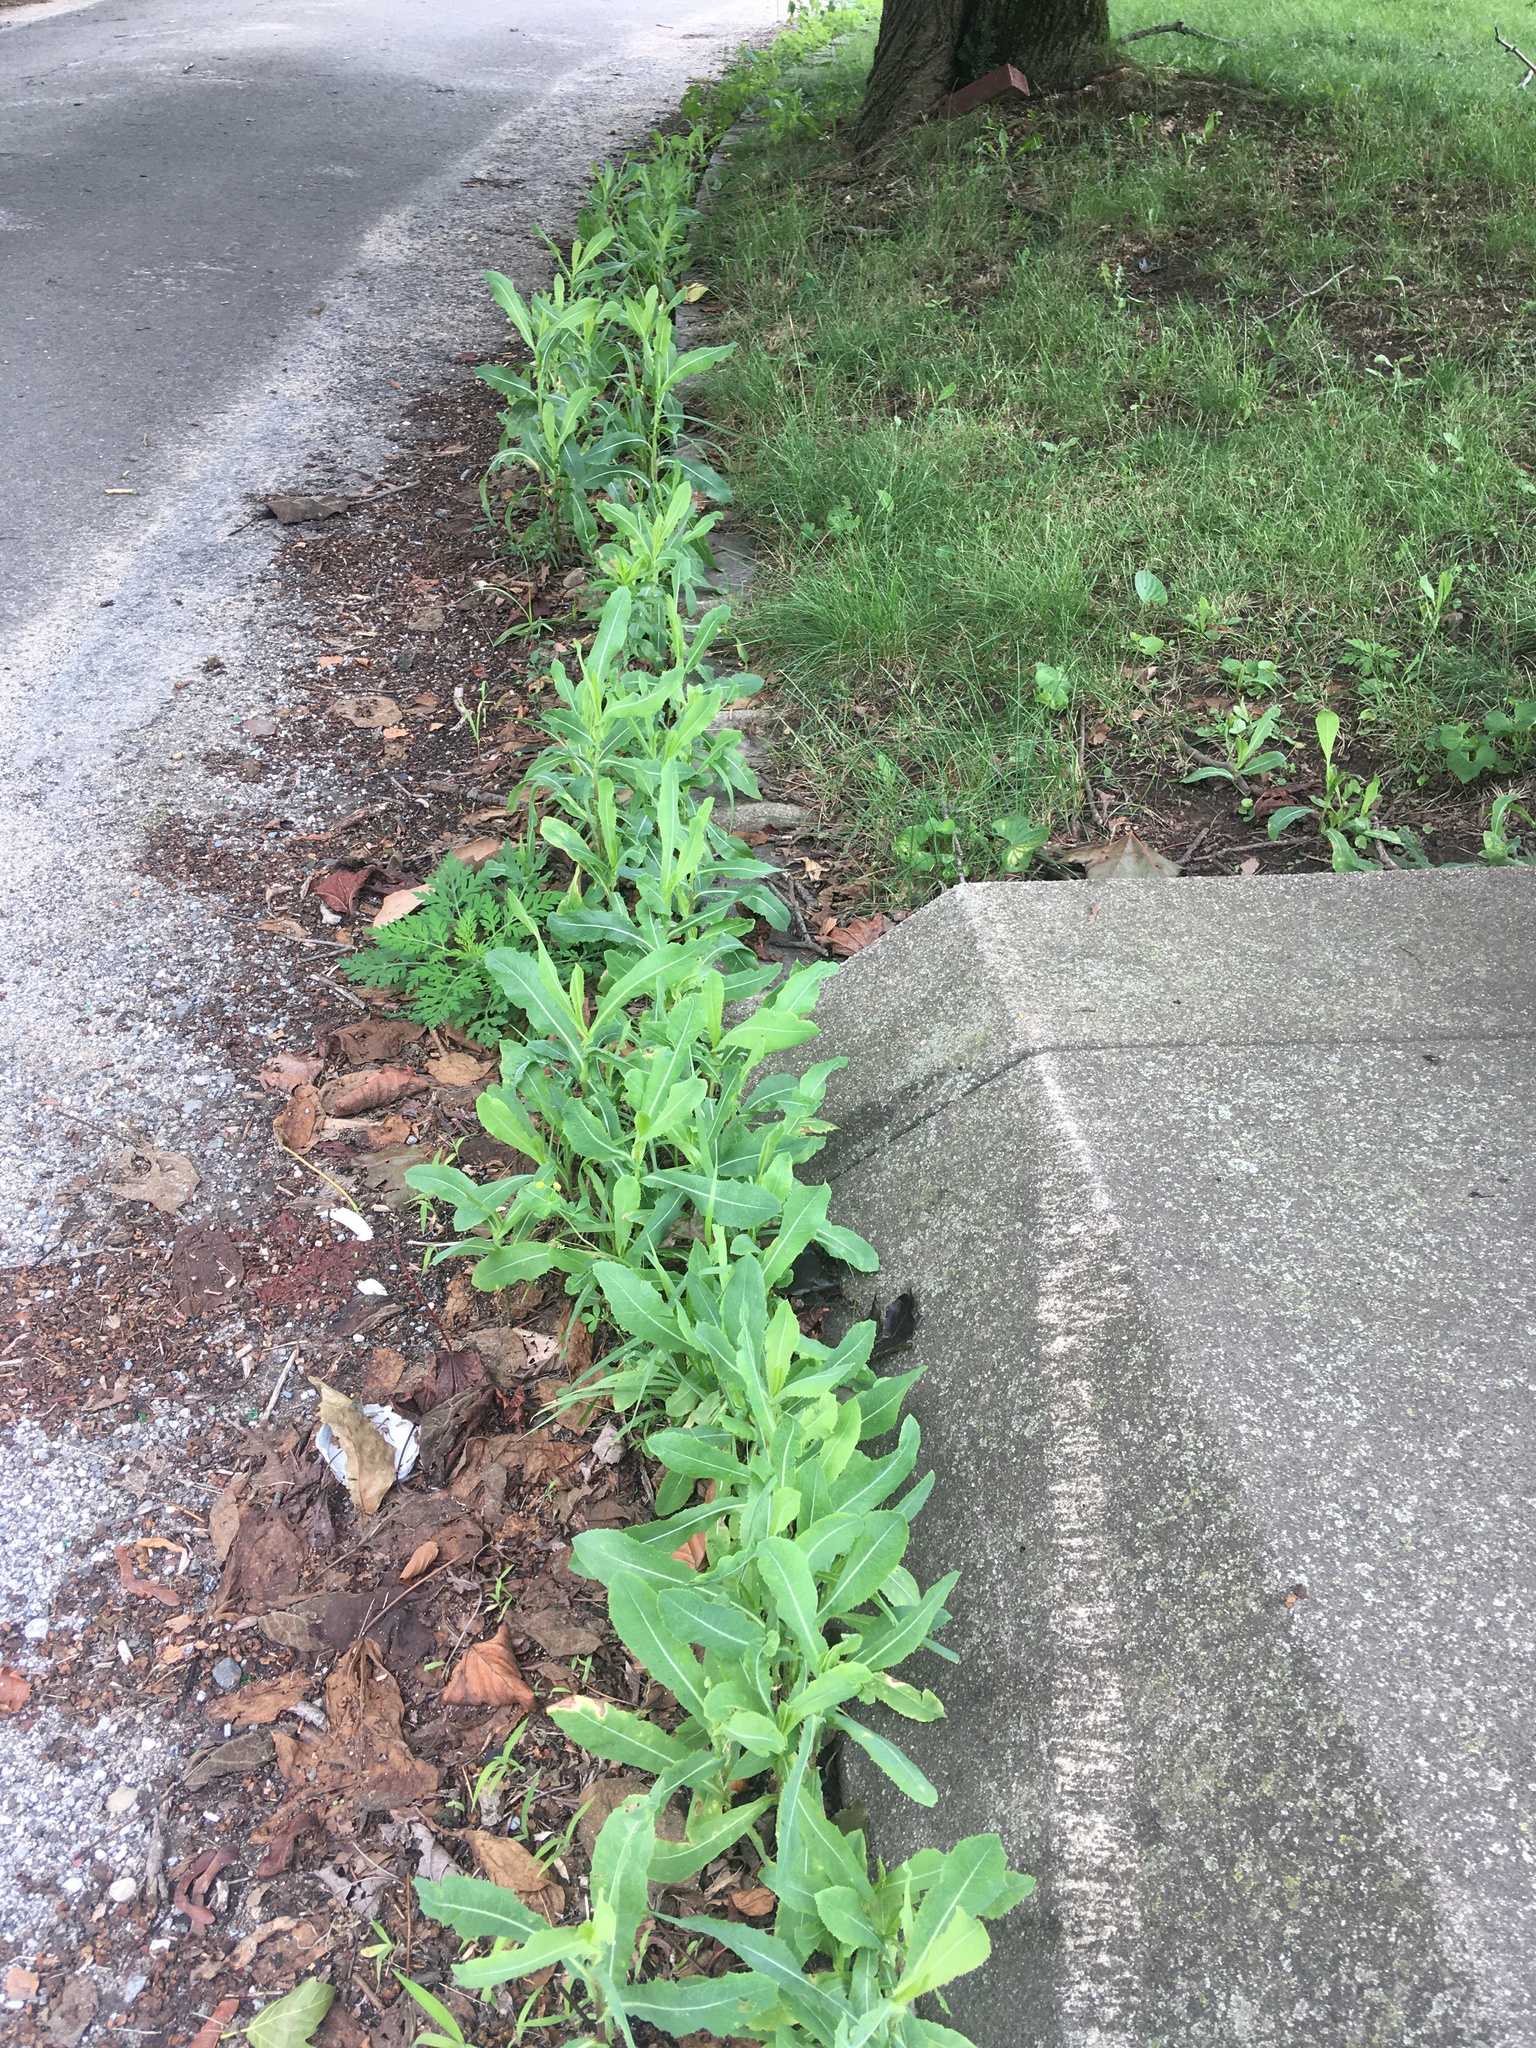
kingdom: Plantae
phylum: Tracheophyta
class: Magnoliopsida
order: Asterales
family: Asteraceae
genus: Lactuca
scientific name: Lactuca serriola
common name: Prickly lettuce
